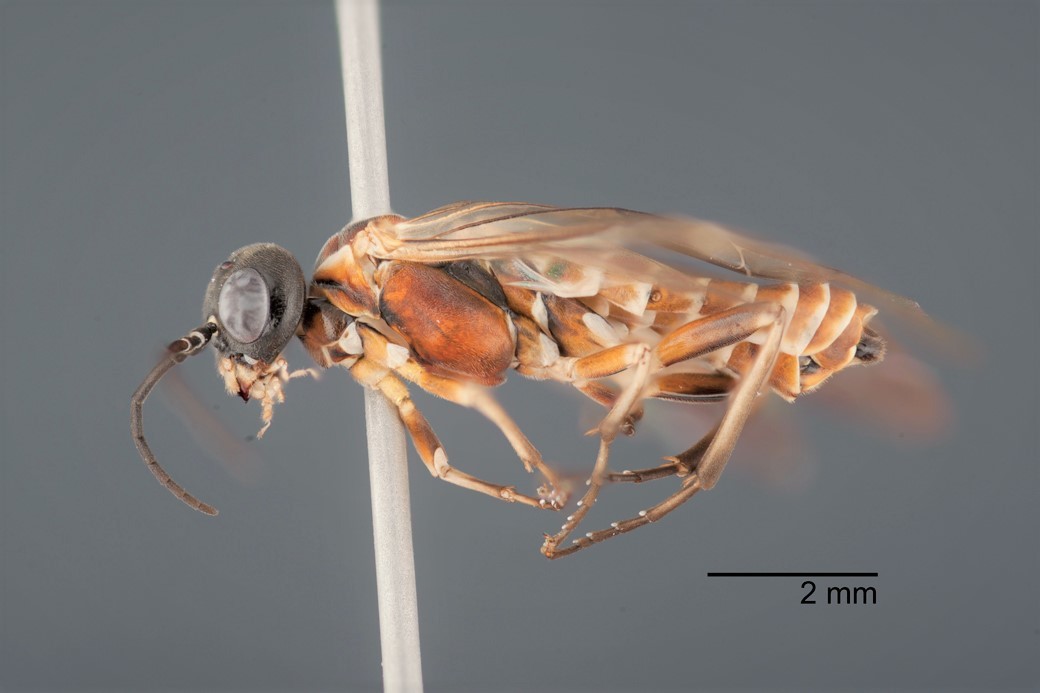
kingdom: Animalia
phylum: Arthropoda
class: Insecta
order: Hymenoptera
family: Tenthredinidae
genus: Monsoma
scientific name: Monsoma inferentium
